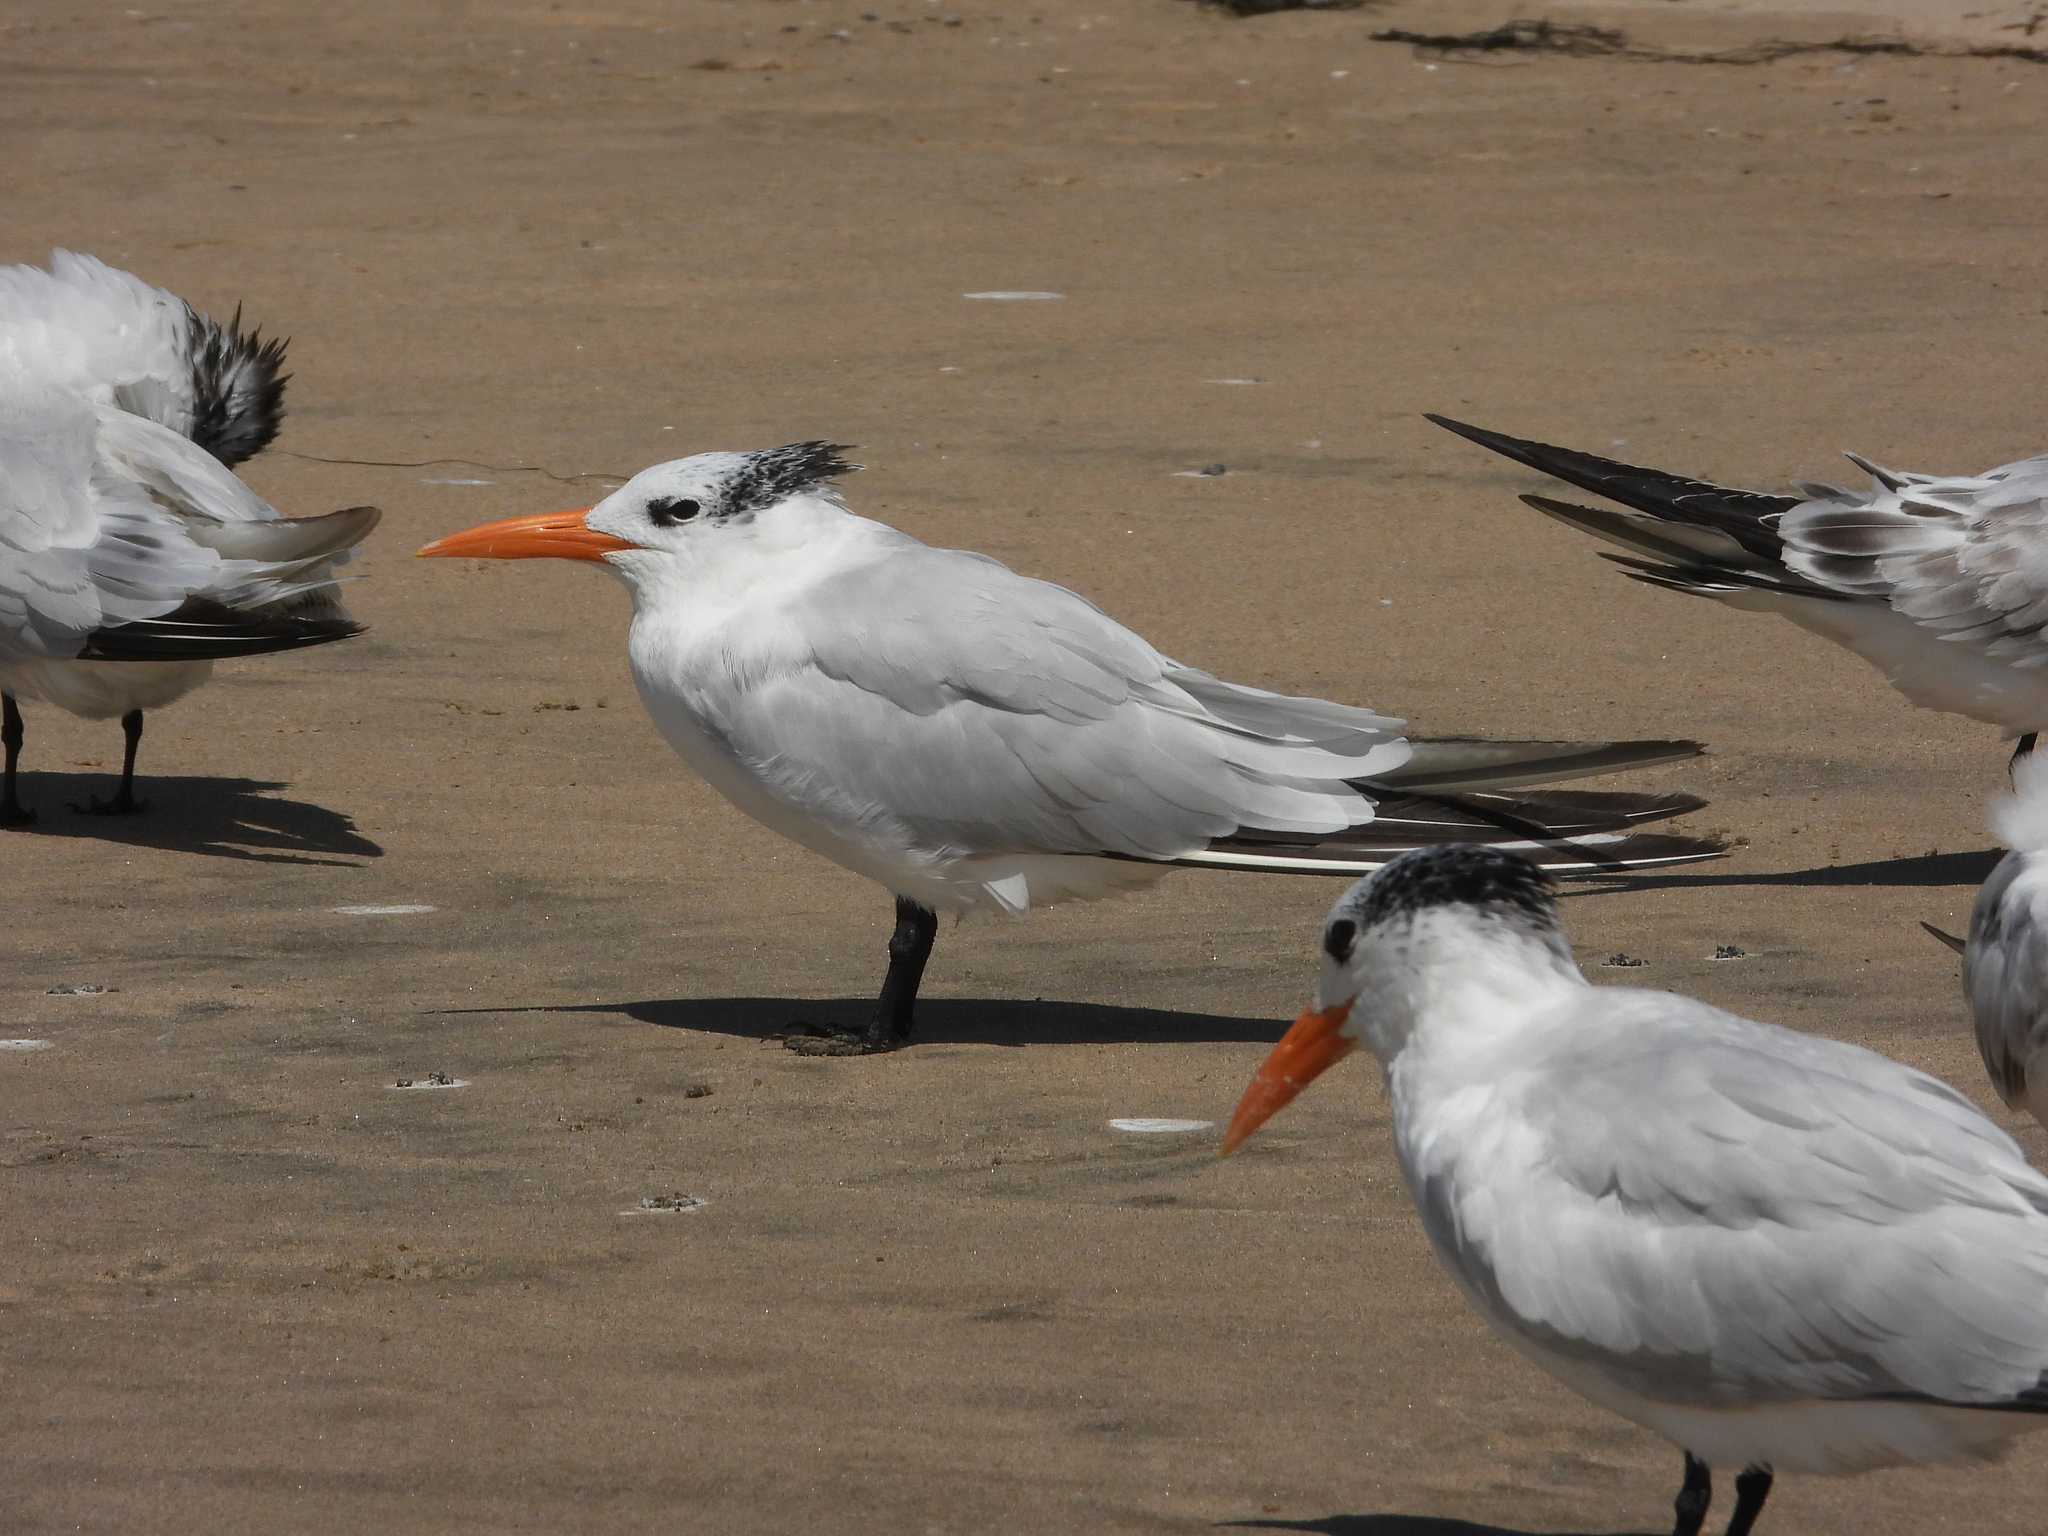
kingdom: Animalia
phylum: Chordata
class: Aves
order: Charadriiformes
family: Laridae
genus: Thalasseus
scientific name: Thalasseus maximus
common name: Royal tern
